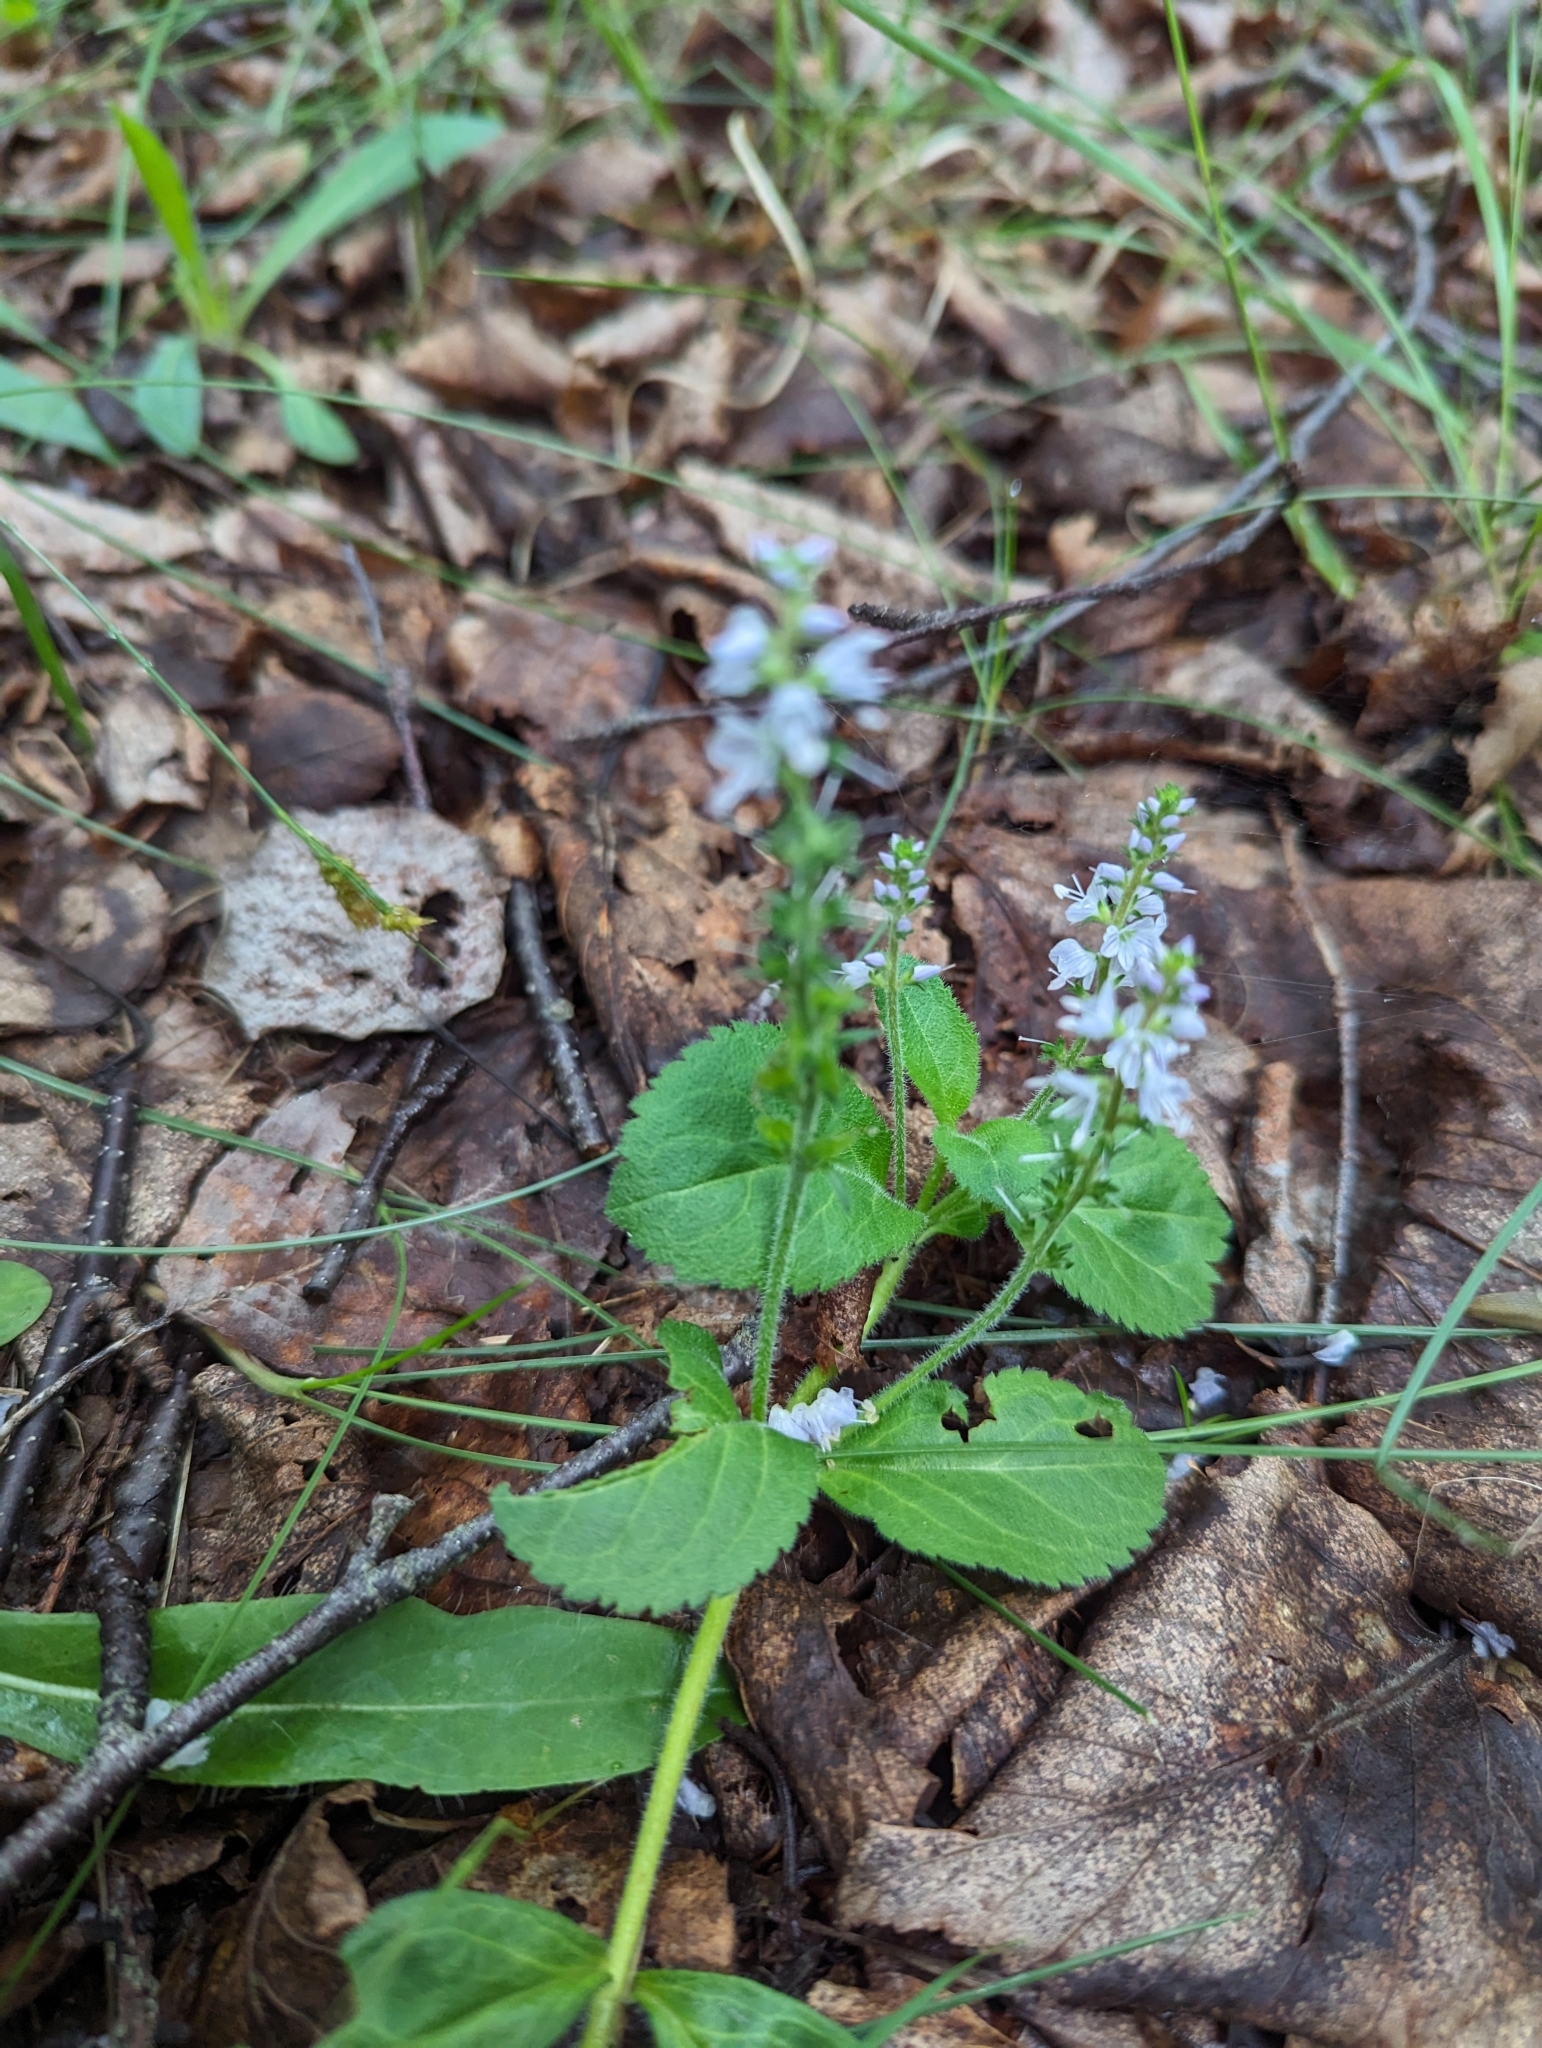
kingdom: Plantae
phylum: Tracheophyta
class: Magnoliopsida
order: Lamiales
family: Plantaginaceae
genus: Veronica
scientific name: Veronica officinalis
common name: Common speedwell
